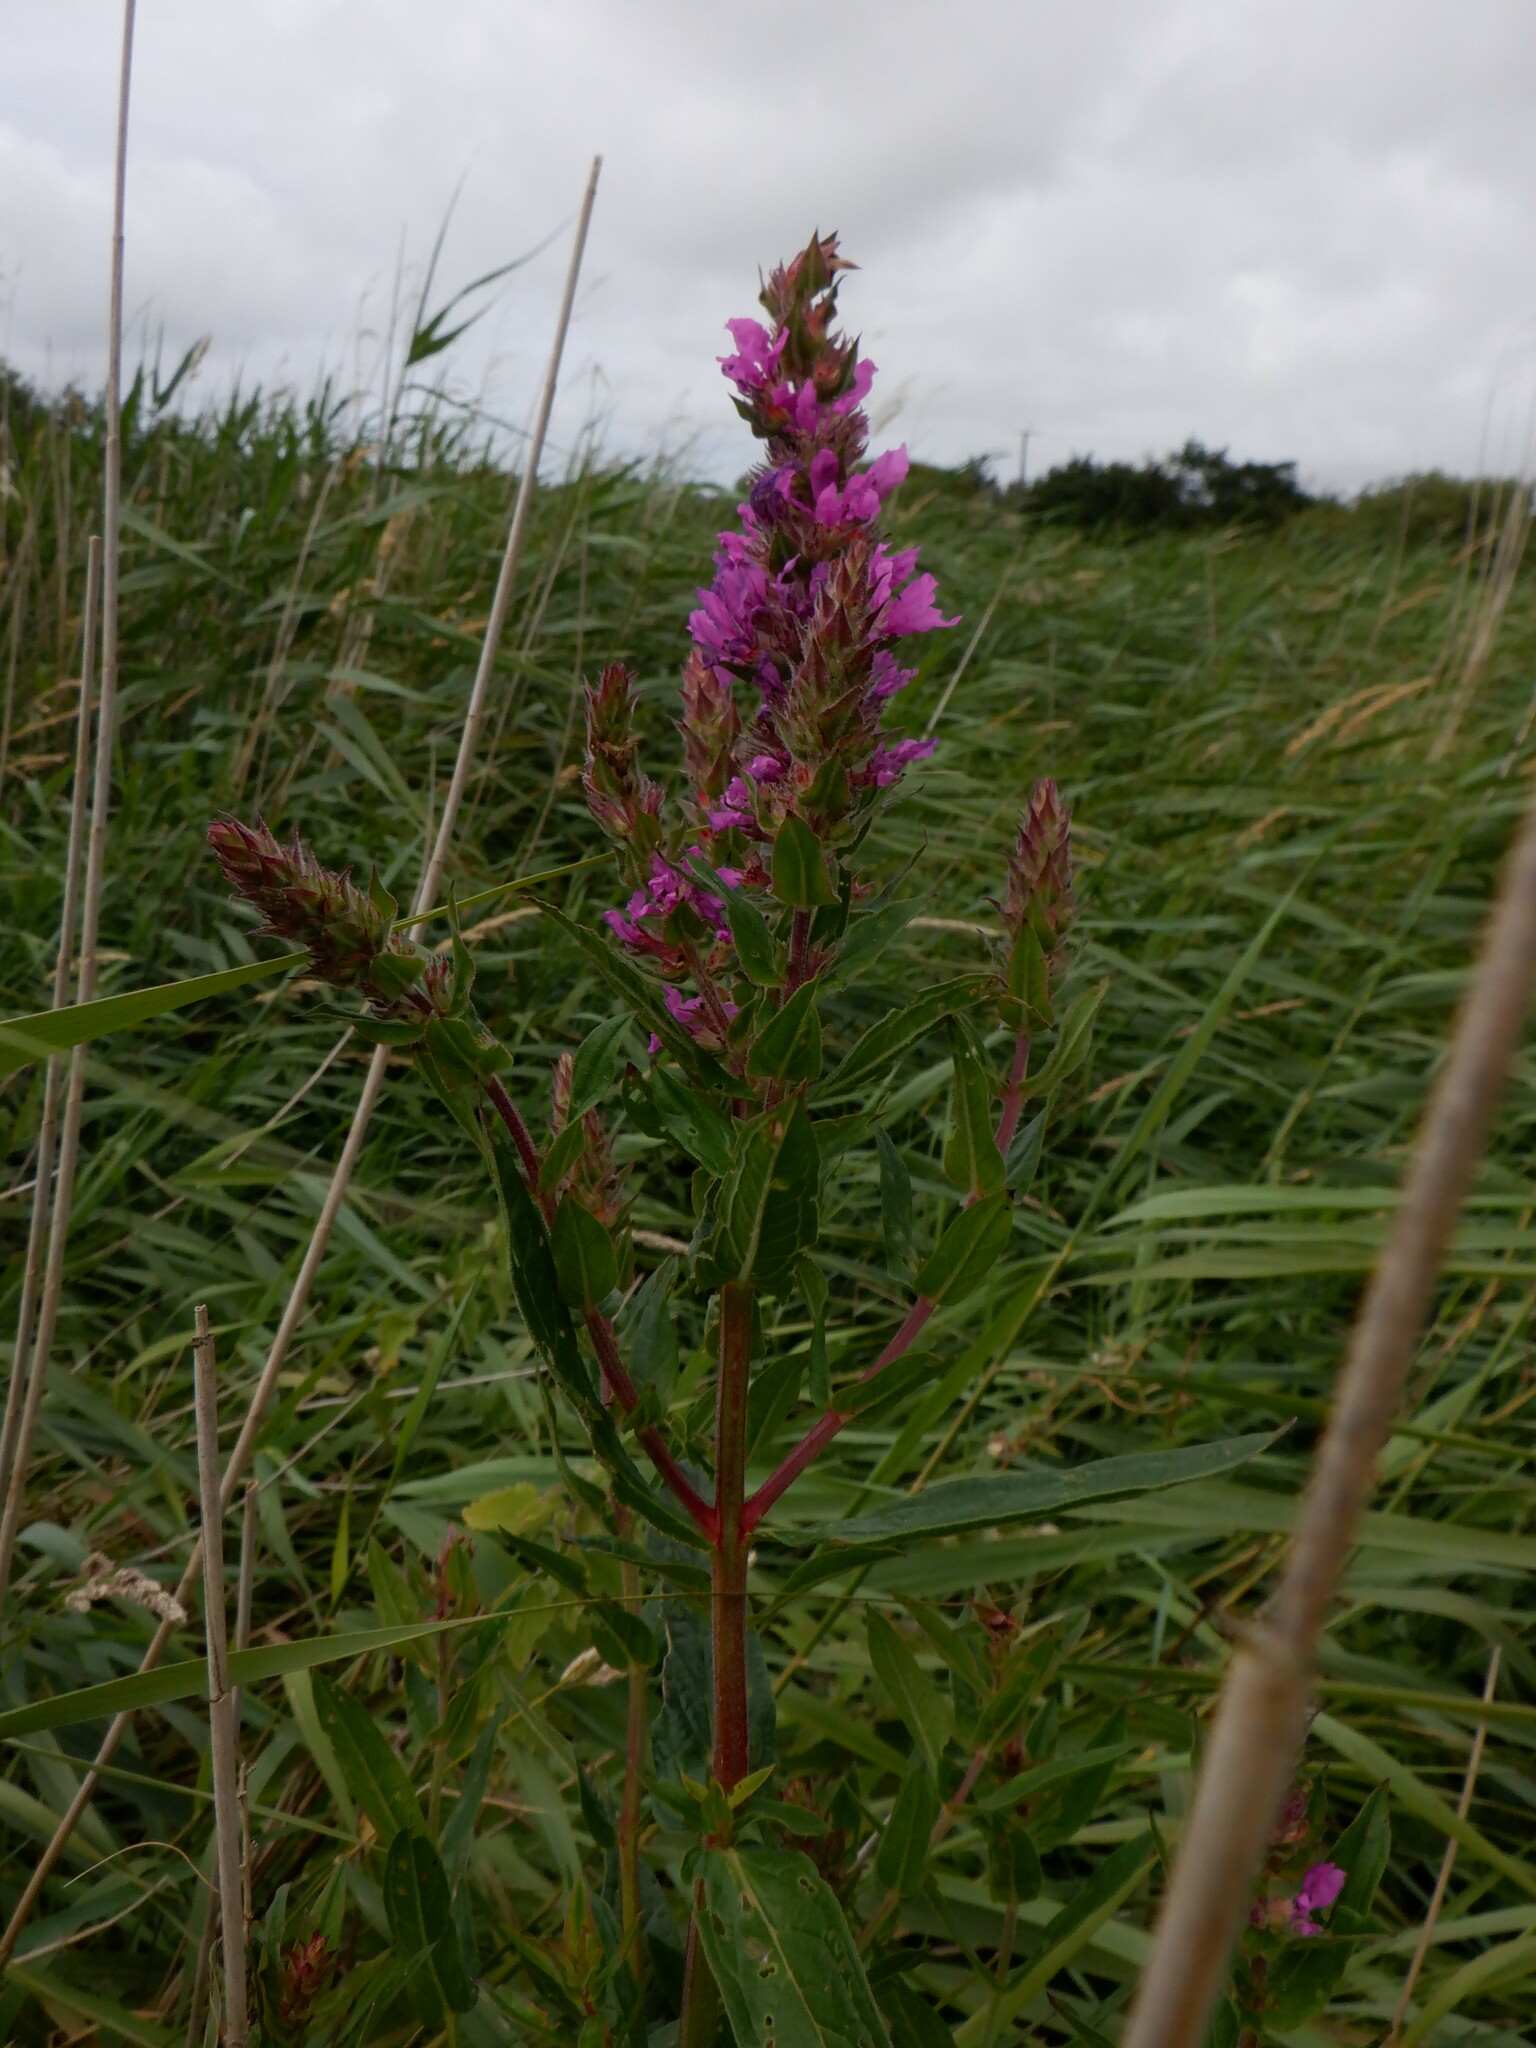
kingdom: Plantae
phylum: Tracheophyta
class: Magnoliopsida
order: Myrtales
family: Lythraceae
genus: Lythrum
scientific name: Lythrum salicaria
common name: Purple loosestrife
